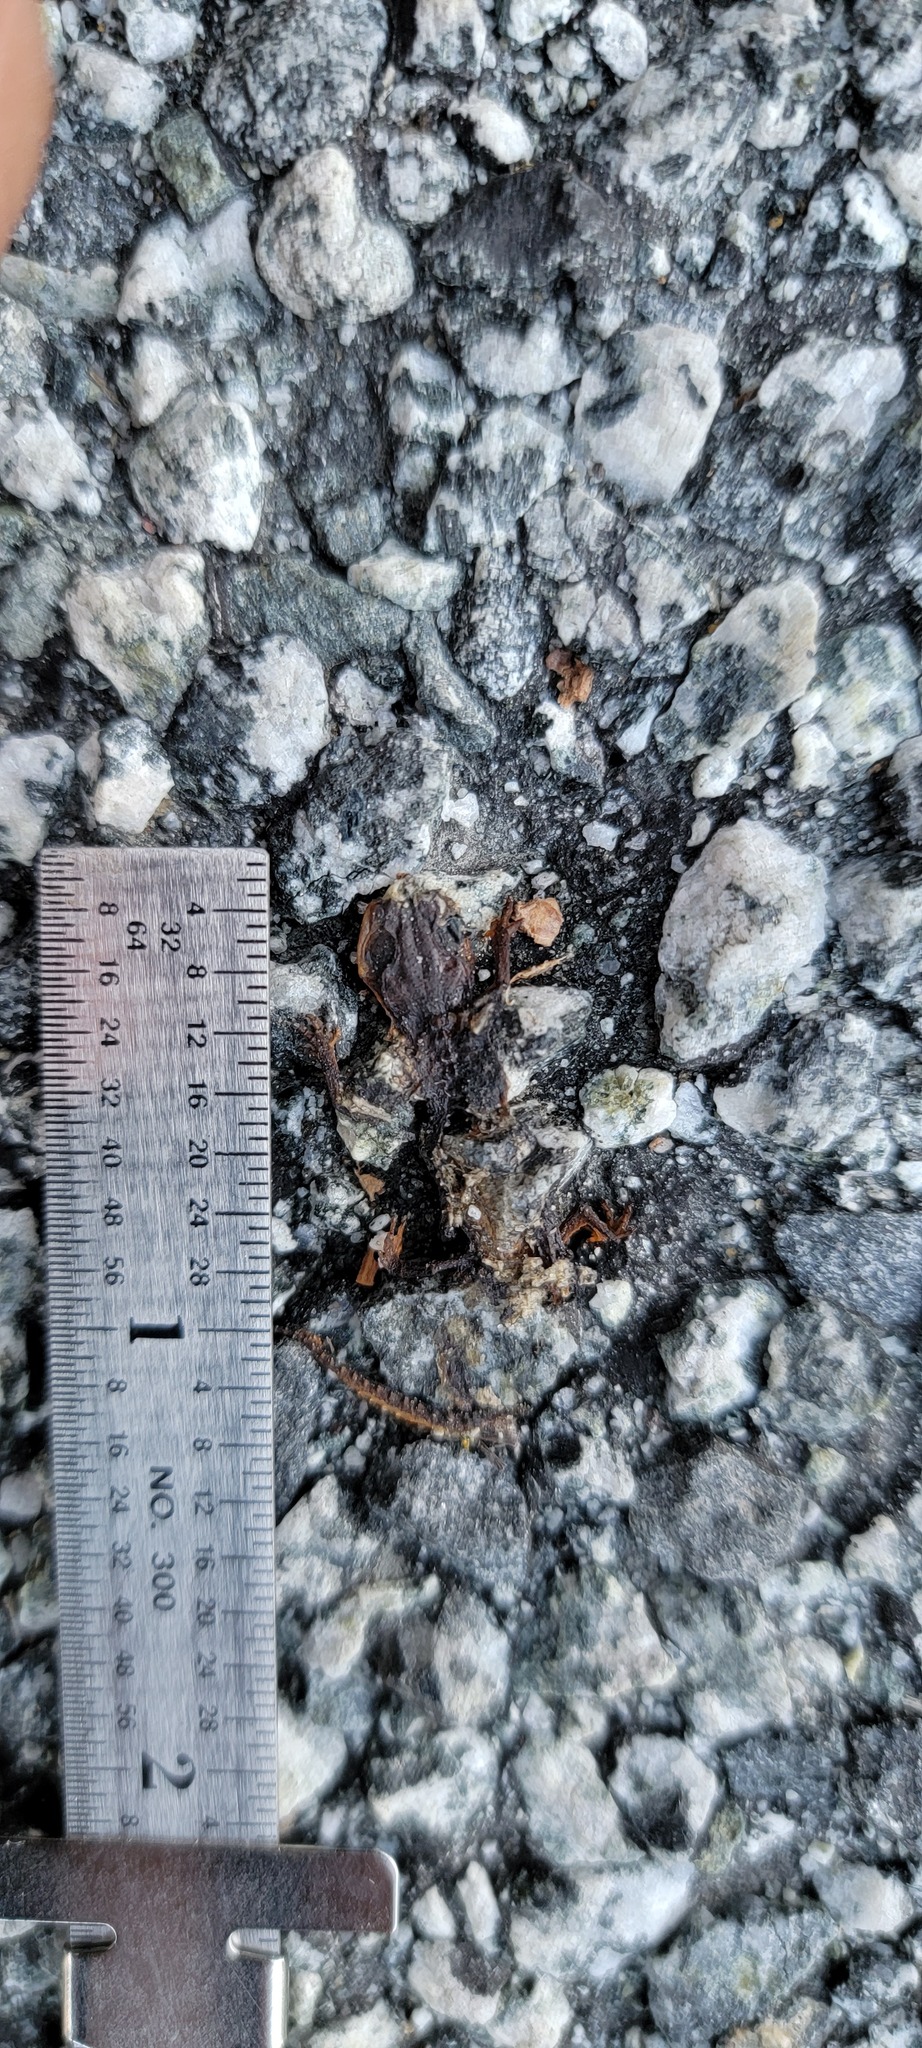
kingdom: Animalia
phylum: Chordata
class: Amphibia
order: Caudata
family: Salamandridae
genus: Taricha
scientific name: Taricha
